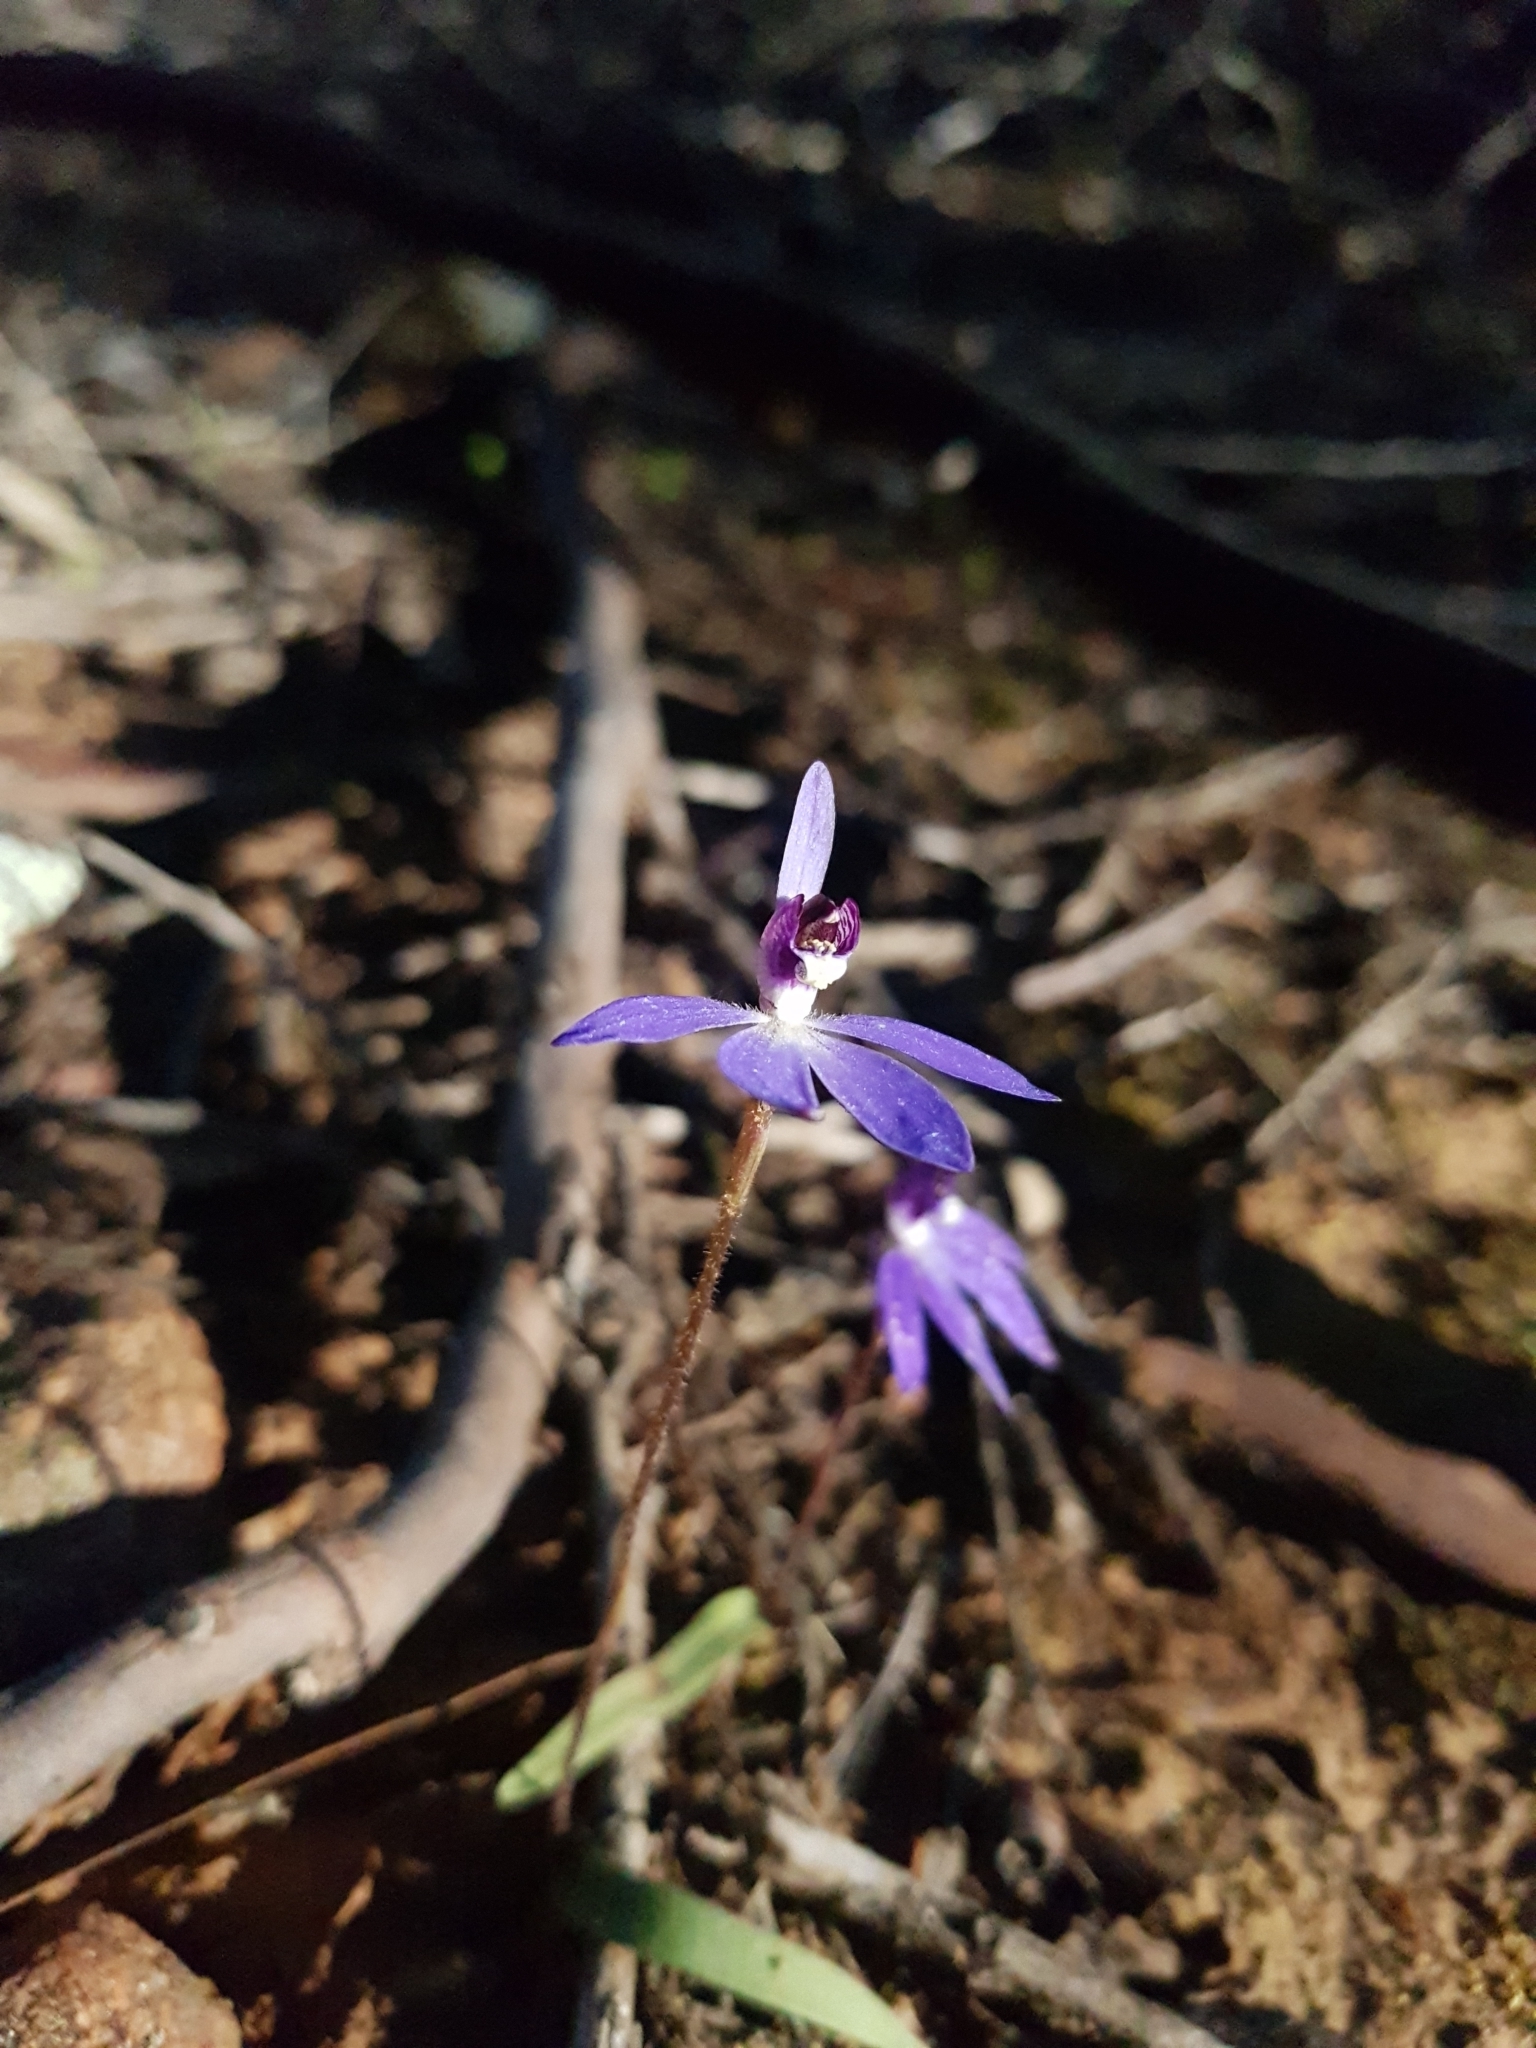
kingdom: Plantae
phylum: Tracheophyta
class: Liliopsida
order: Asparagales
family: Orchidaceae
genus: Caladenia
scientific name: Caladenia caerulea
